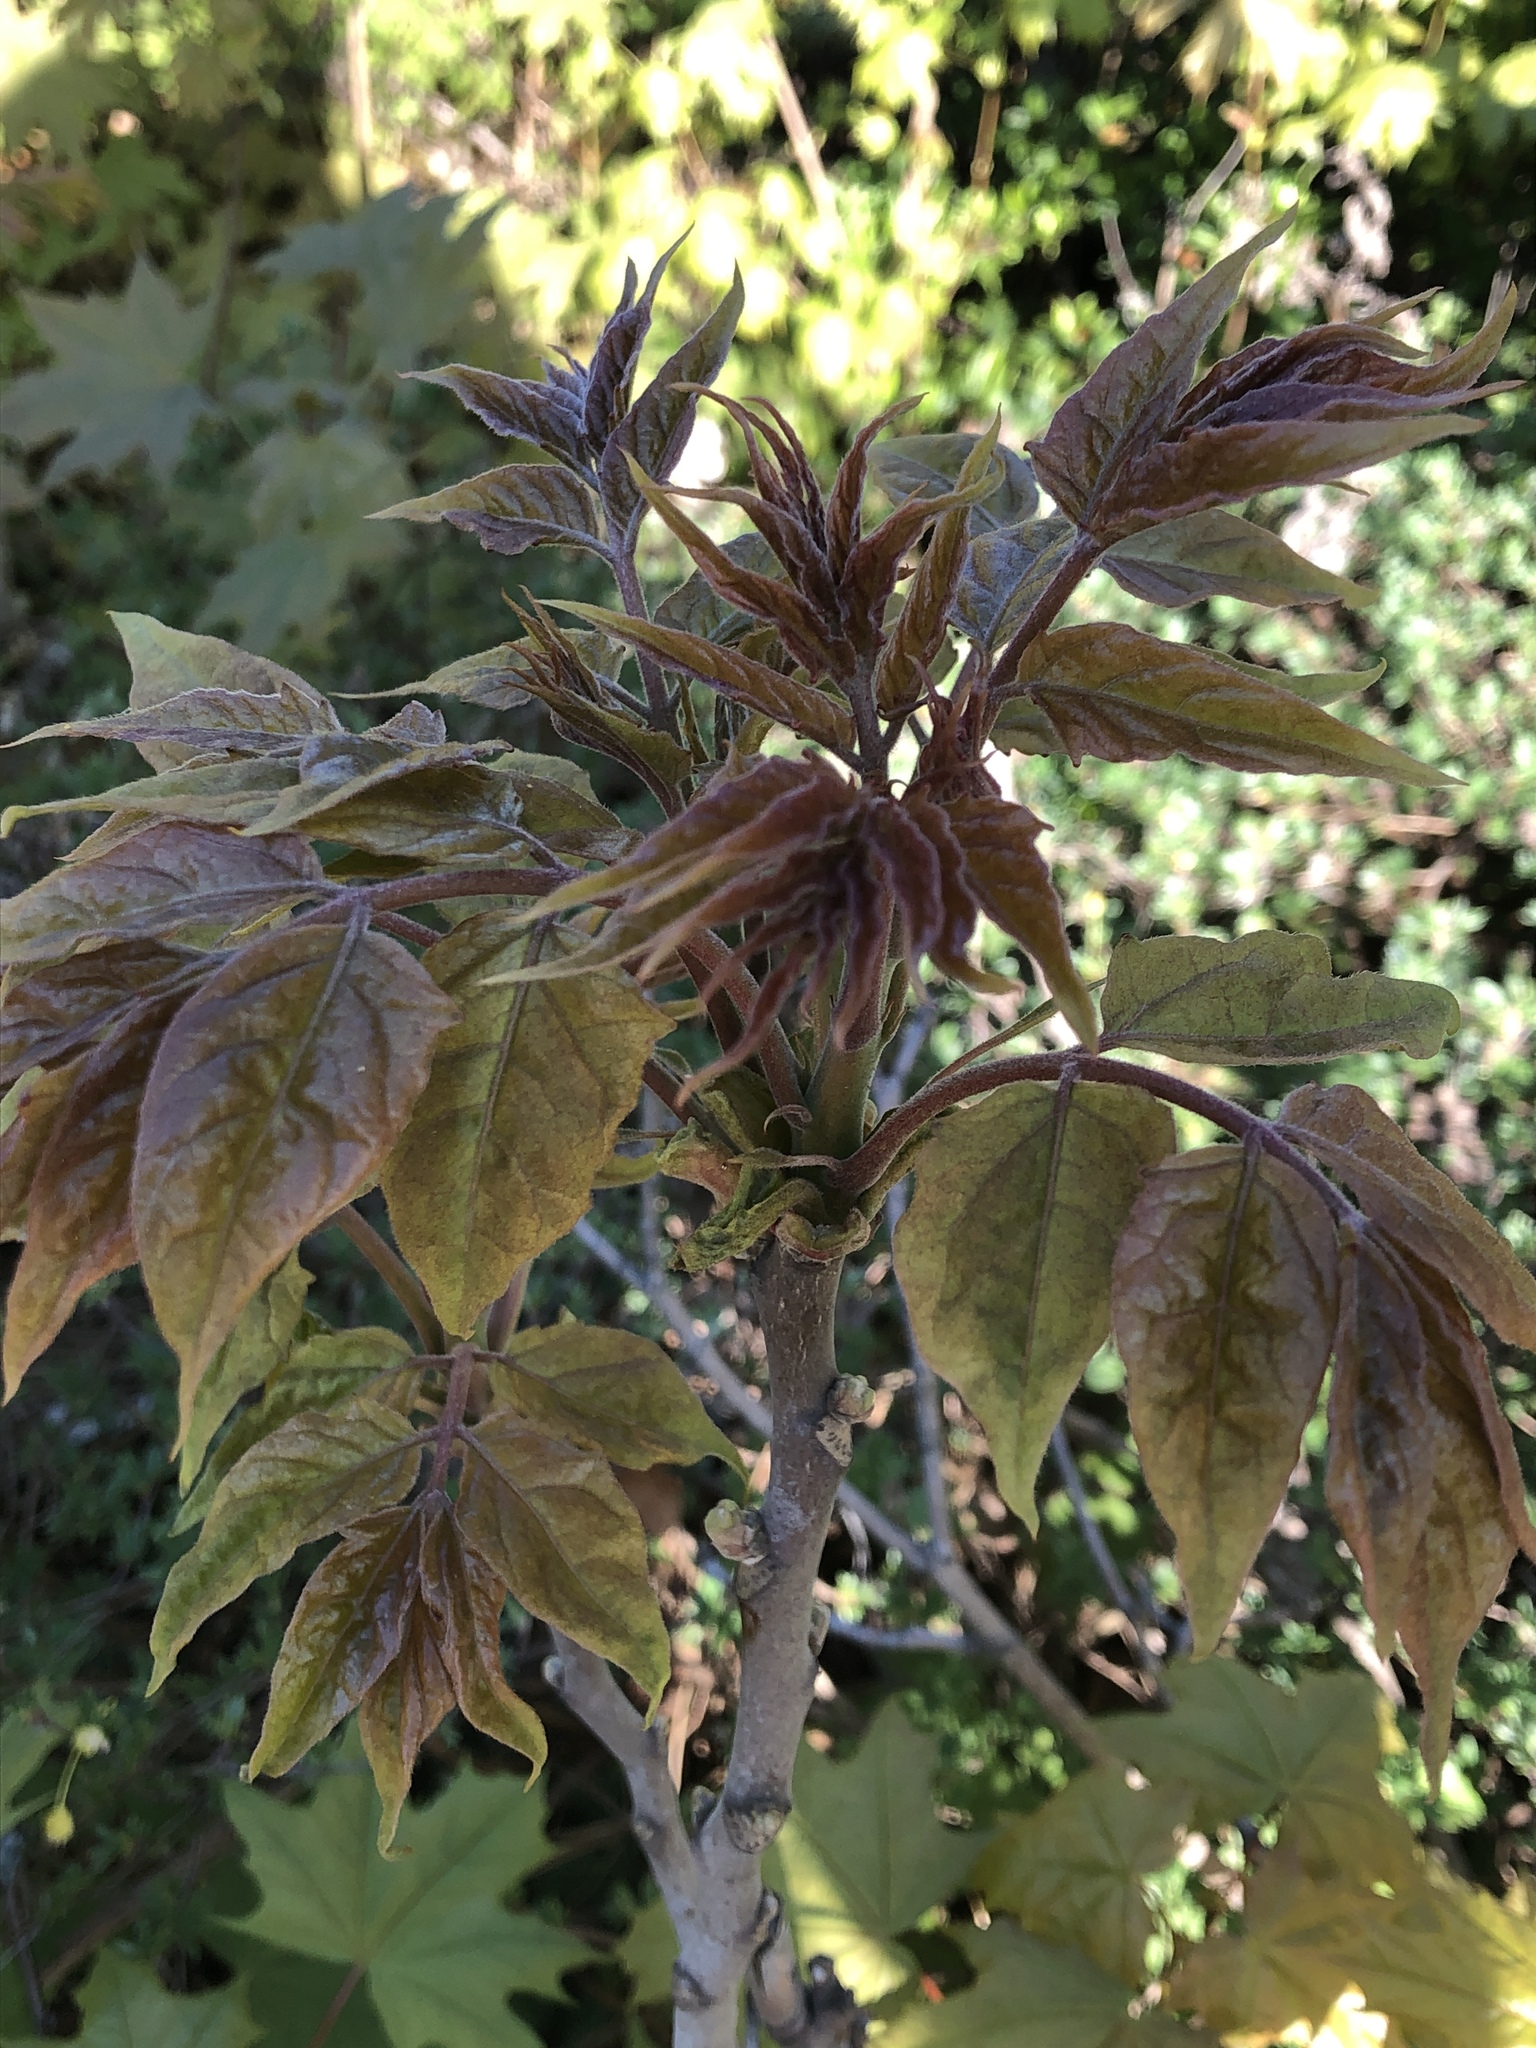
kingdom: Plantae
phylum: Tracheophyta
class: Magnoliopsida
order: Sapindales
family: Simaroubaceae
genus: Ailanthus
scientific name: Ailanthus altissima
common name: Tree-of-heaven
